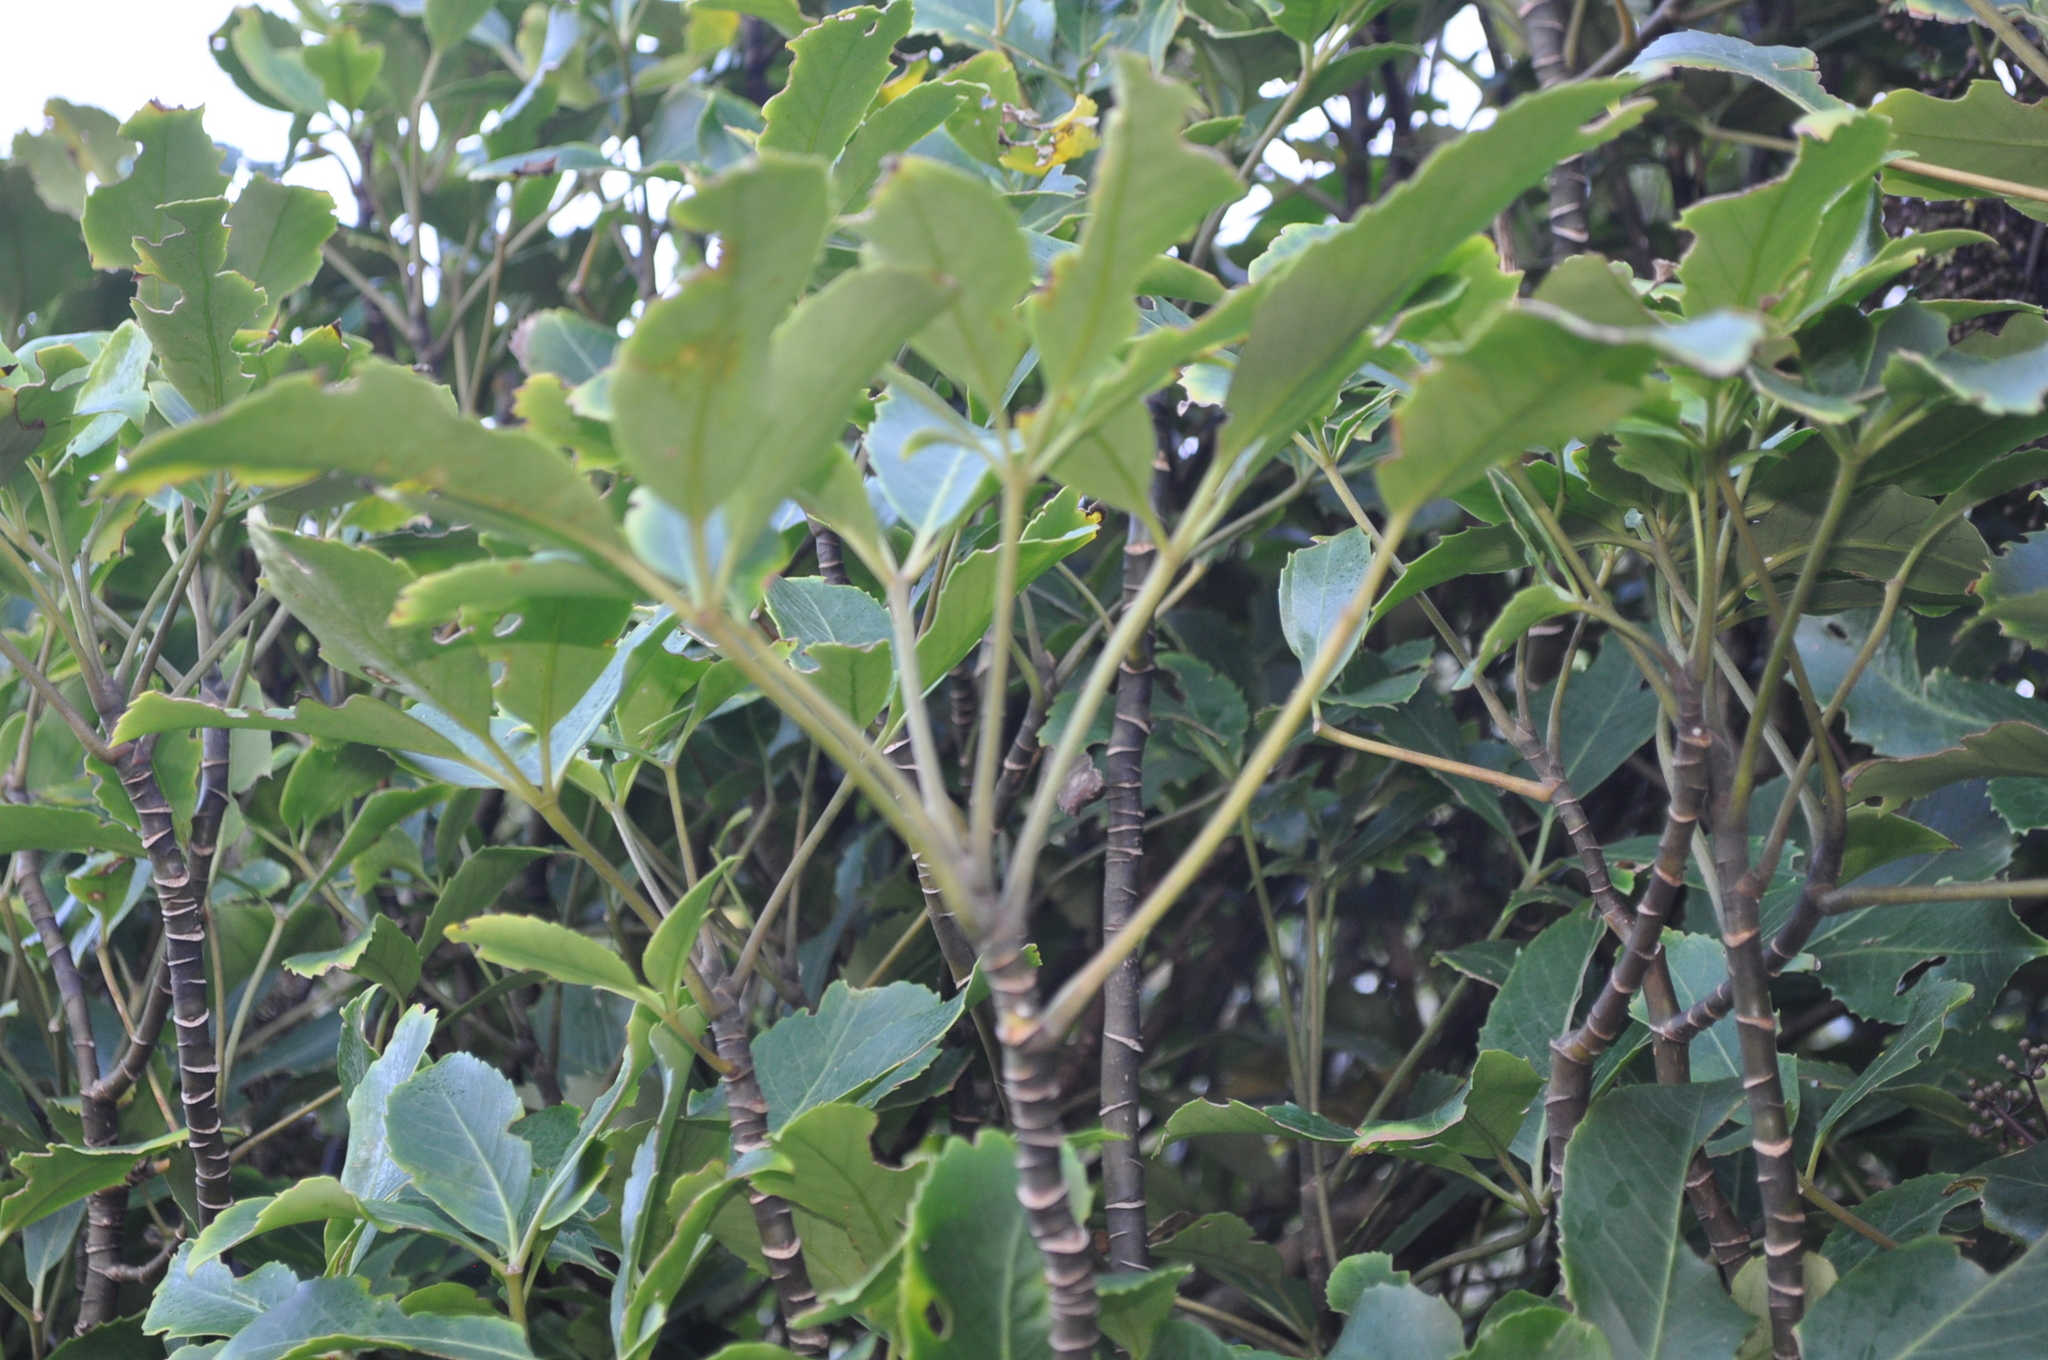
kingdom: Plantae
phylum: Tracheophyta
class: Magnoliopsida
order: Apiales
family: Araliaceae
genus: Neopanax
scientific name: Neopanax arboreus
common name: Five-fingers
